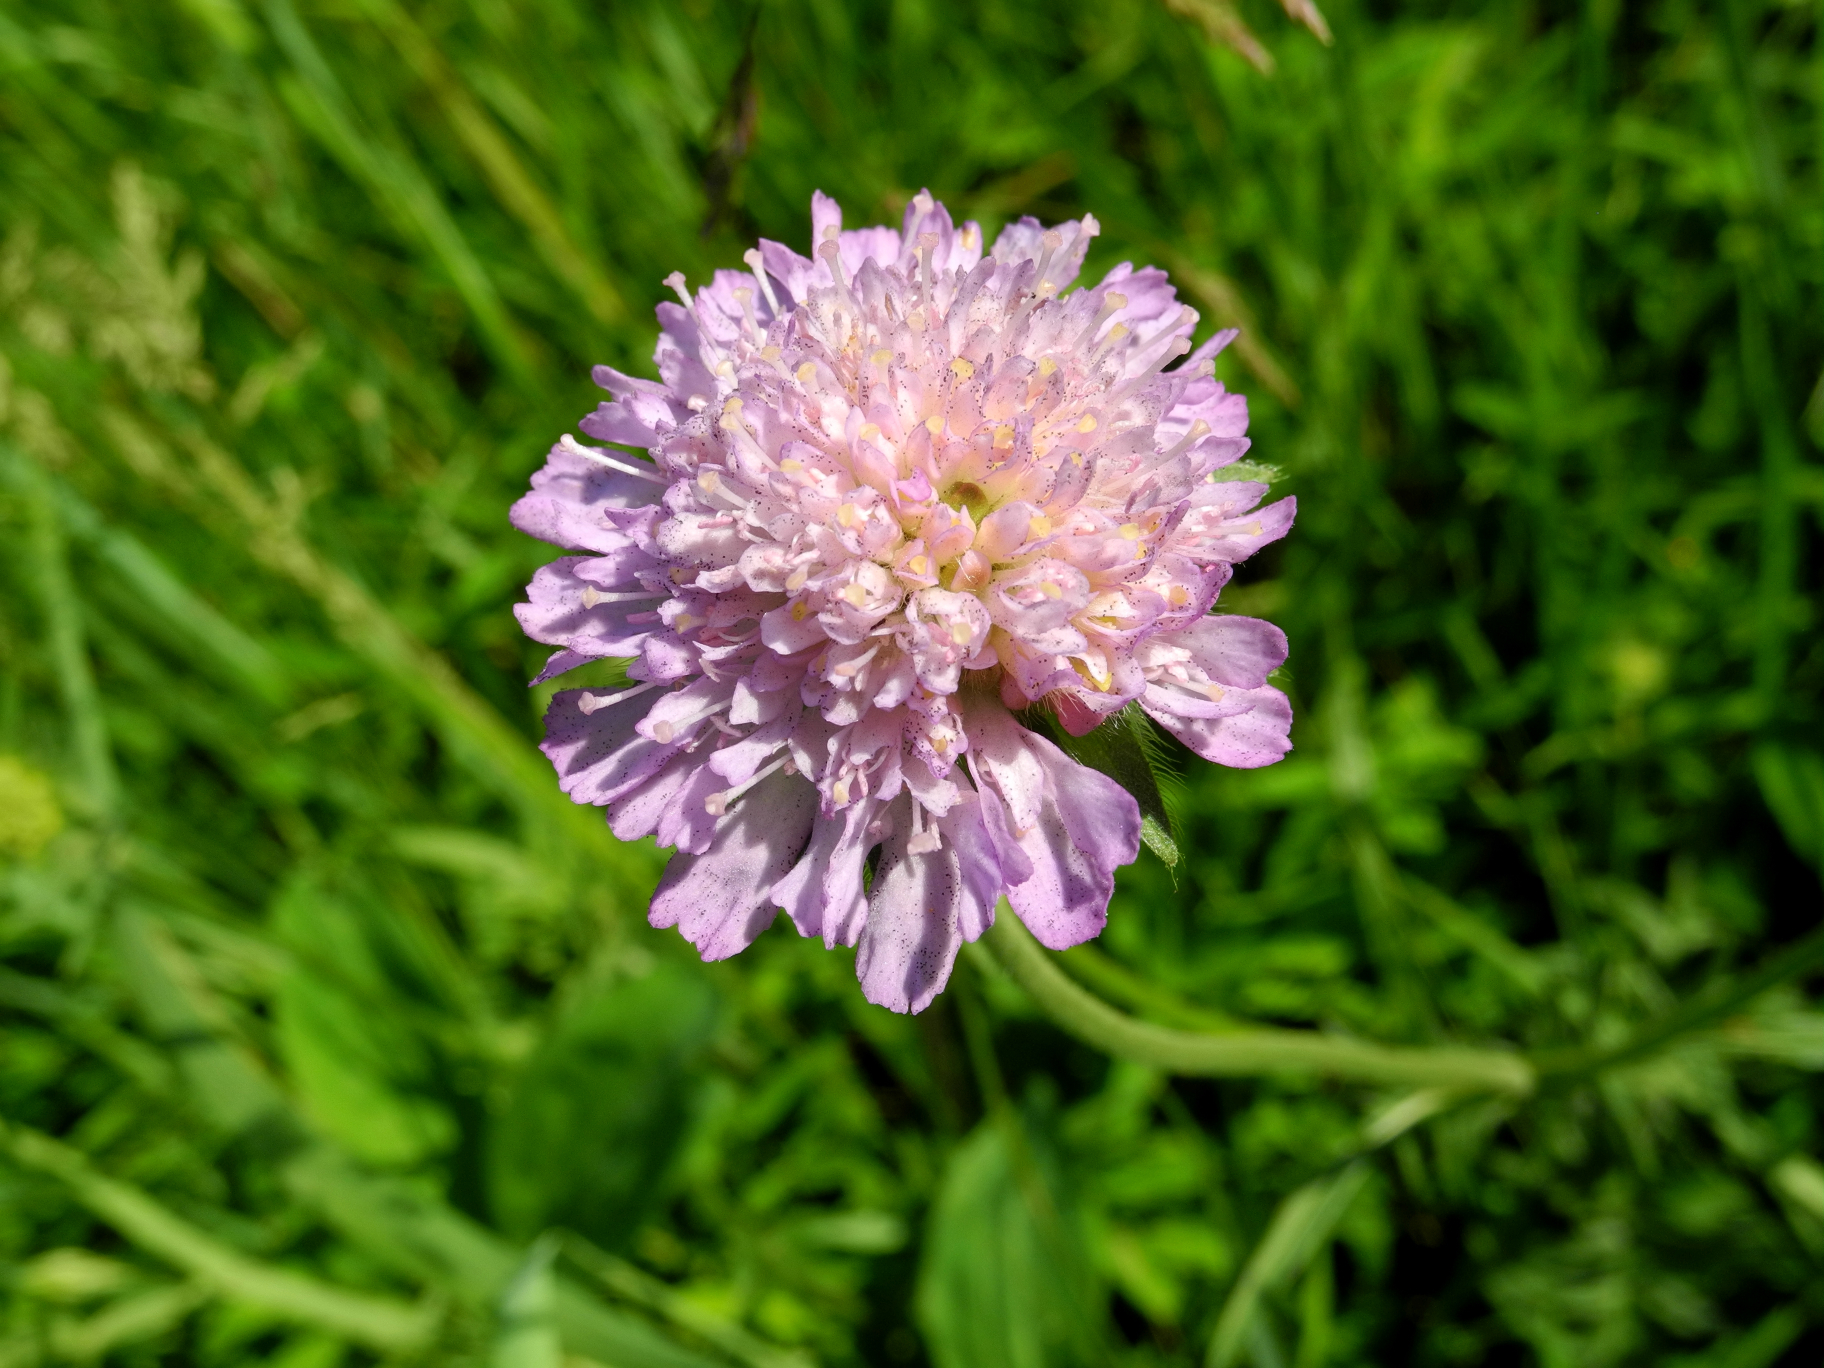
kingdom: Plantae
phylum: Tracheophyta
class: Magnoliopsida
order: Dipsacales
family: Caprifoliaceae
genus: Knautia
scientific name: Knautia arvensis
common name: Field scabiosa
